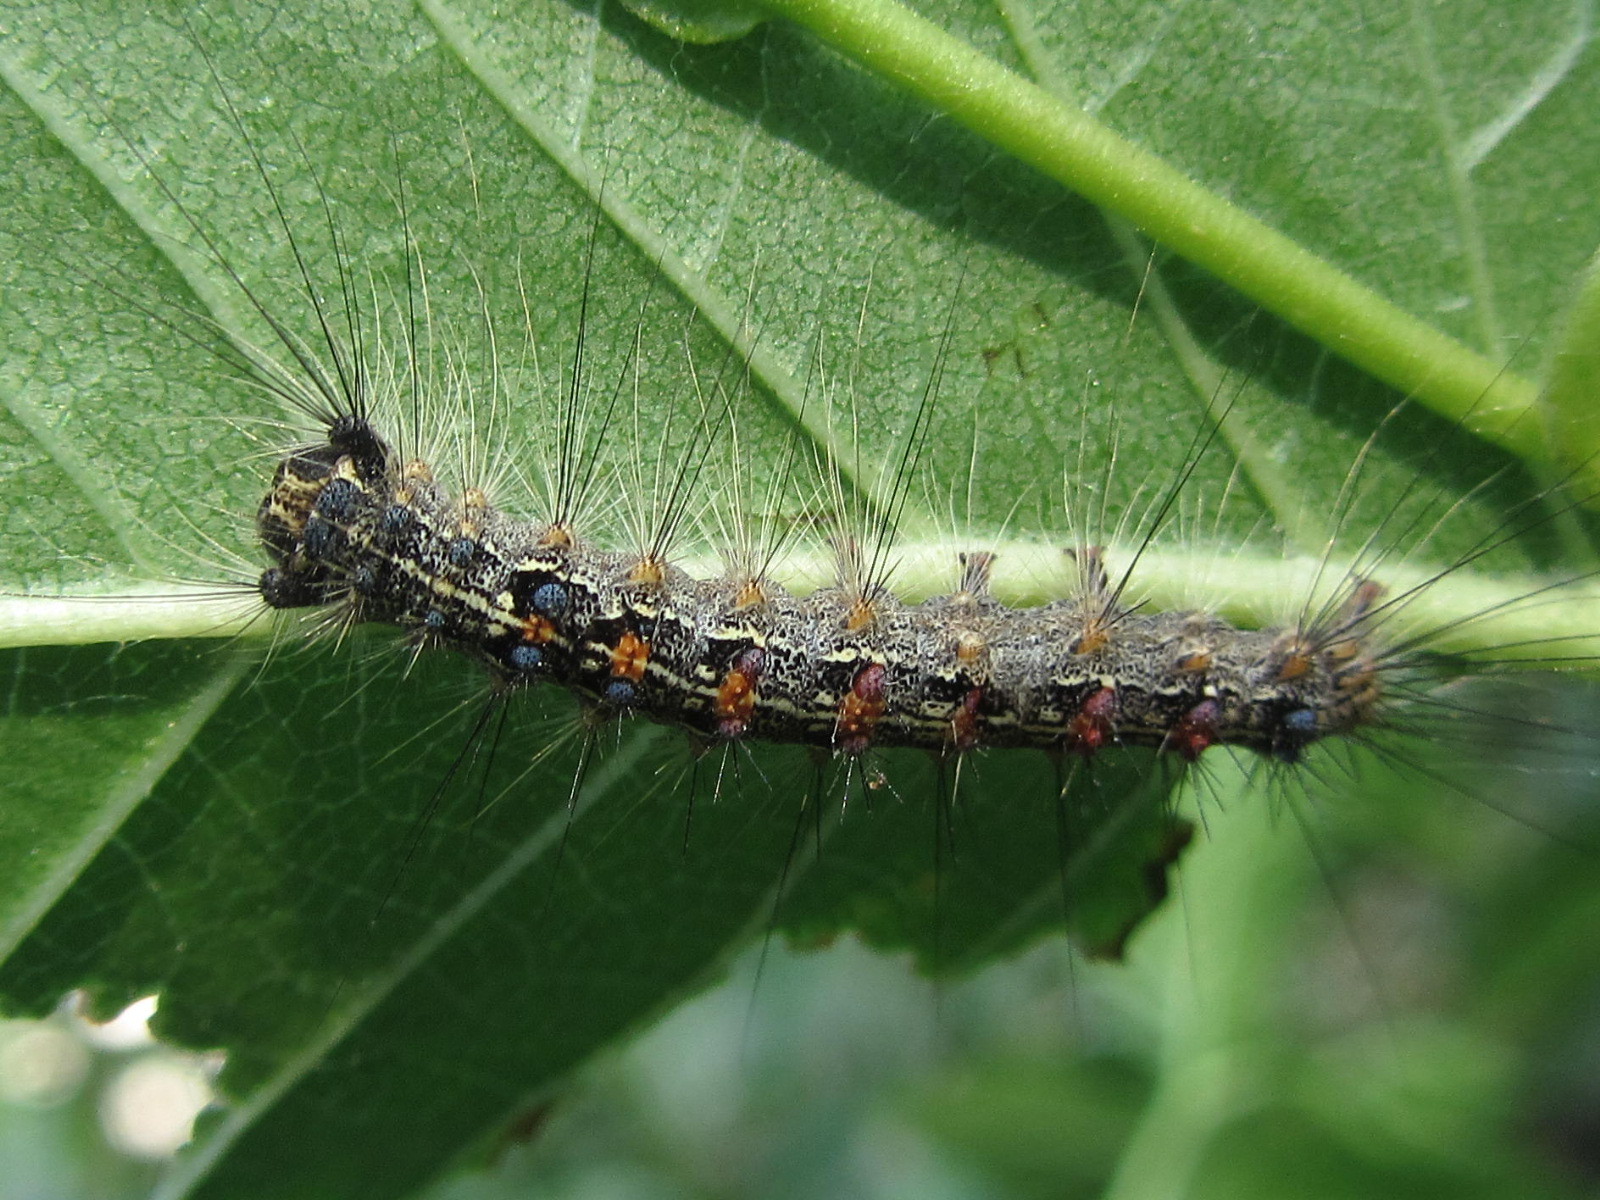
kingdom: Animalia
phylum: Arthropoda
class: Insecta
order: Lepidoptera
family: Erebidae
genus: Lymantria
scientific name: Lymantria dispar
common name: Gypsy moth
